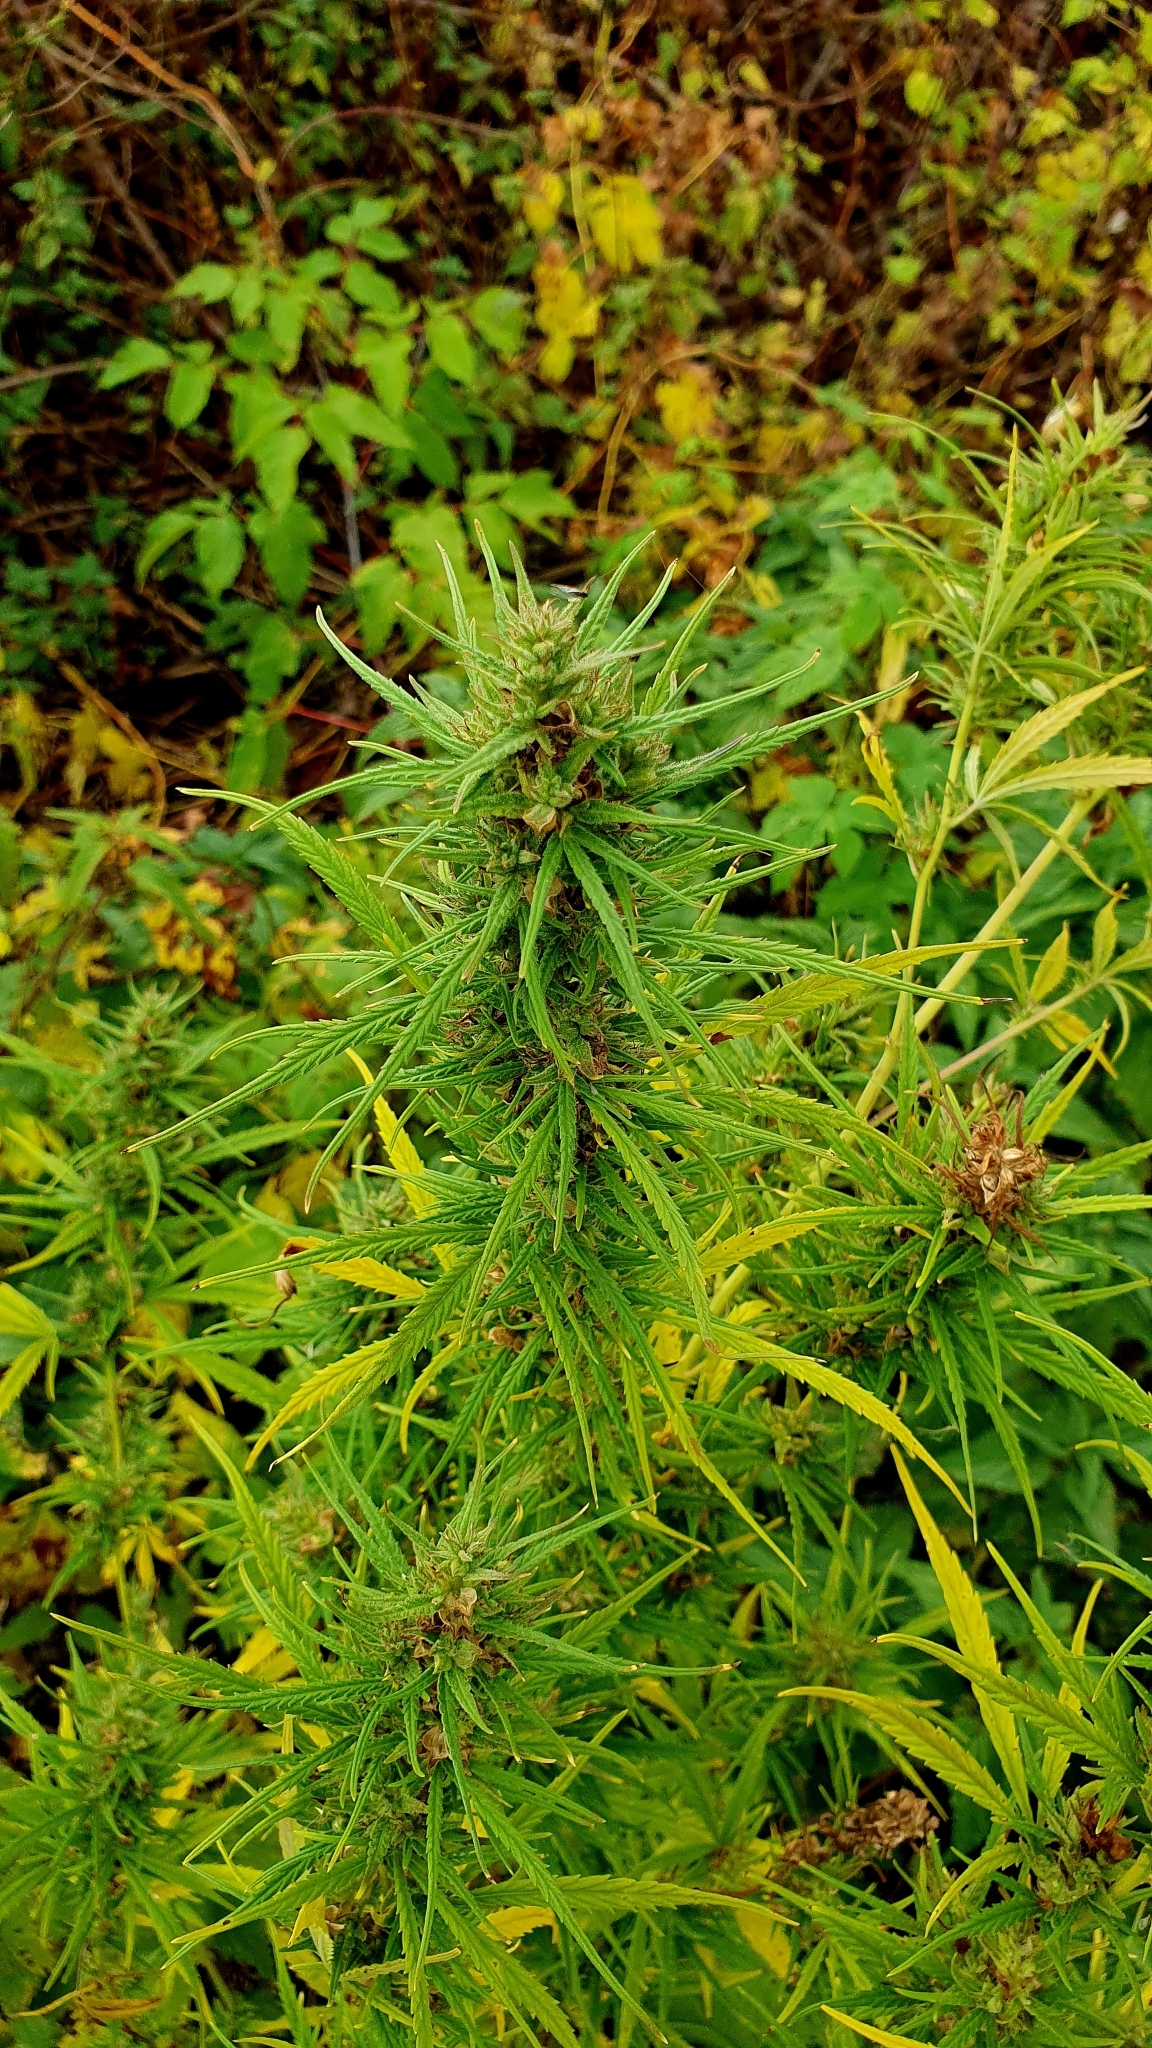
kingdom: Plantae
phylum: Tracheophyta
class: Magnoliopsida
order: Rosales
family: Cannabaceae
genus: Cannabis
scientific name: Cannabis sativa
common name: Hemp
